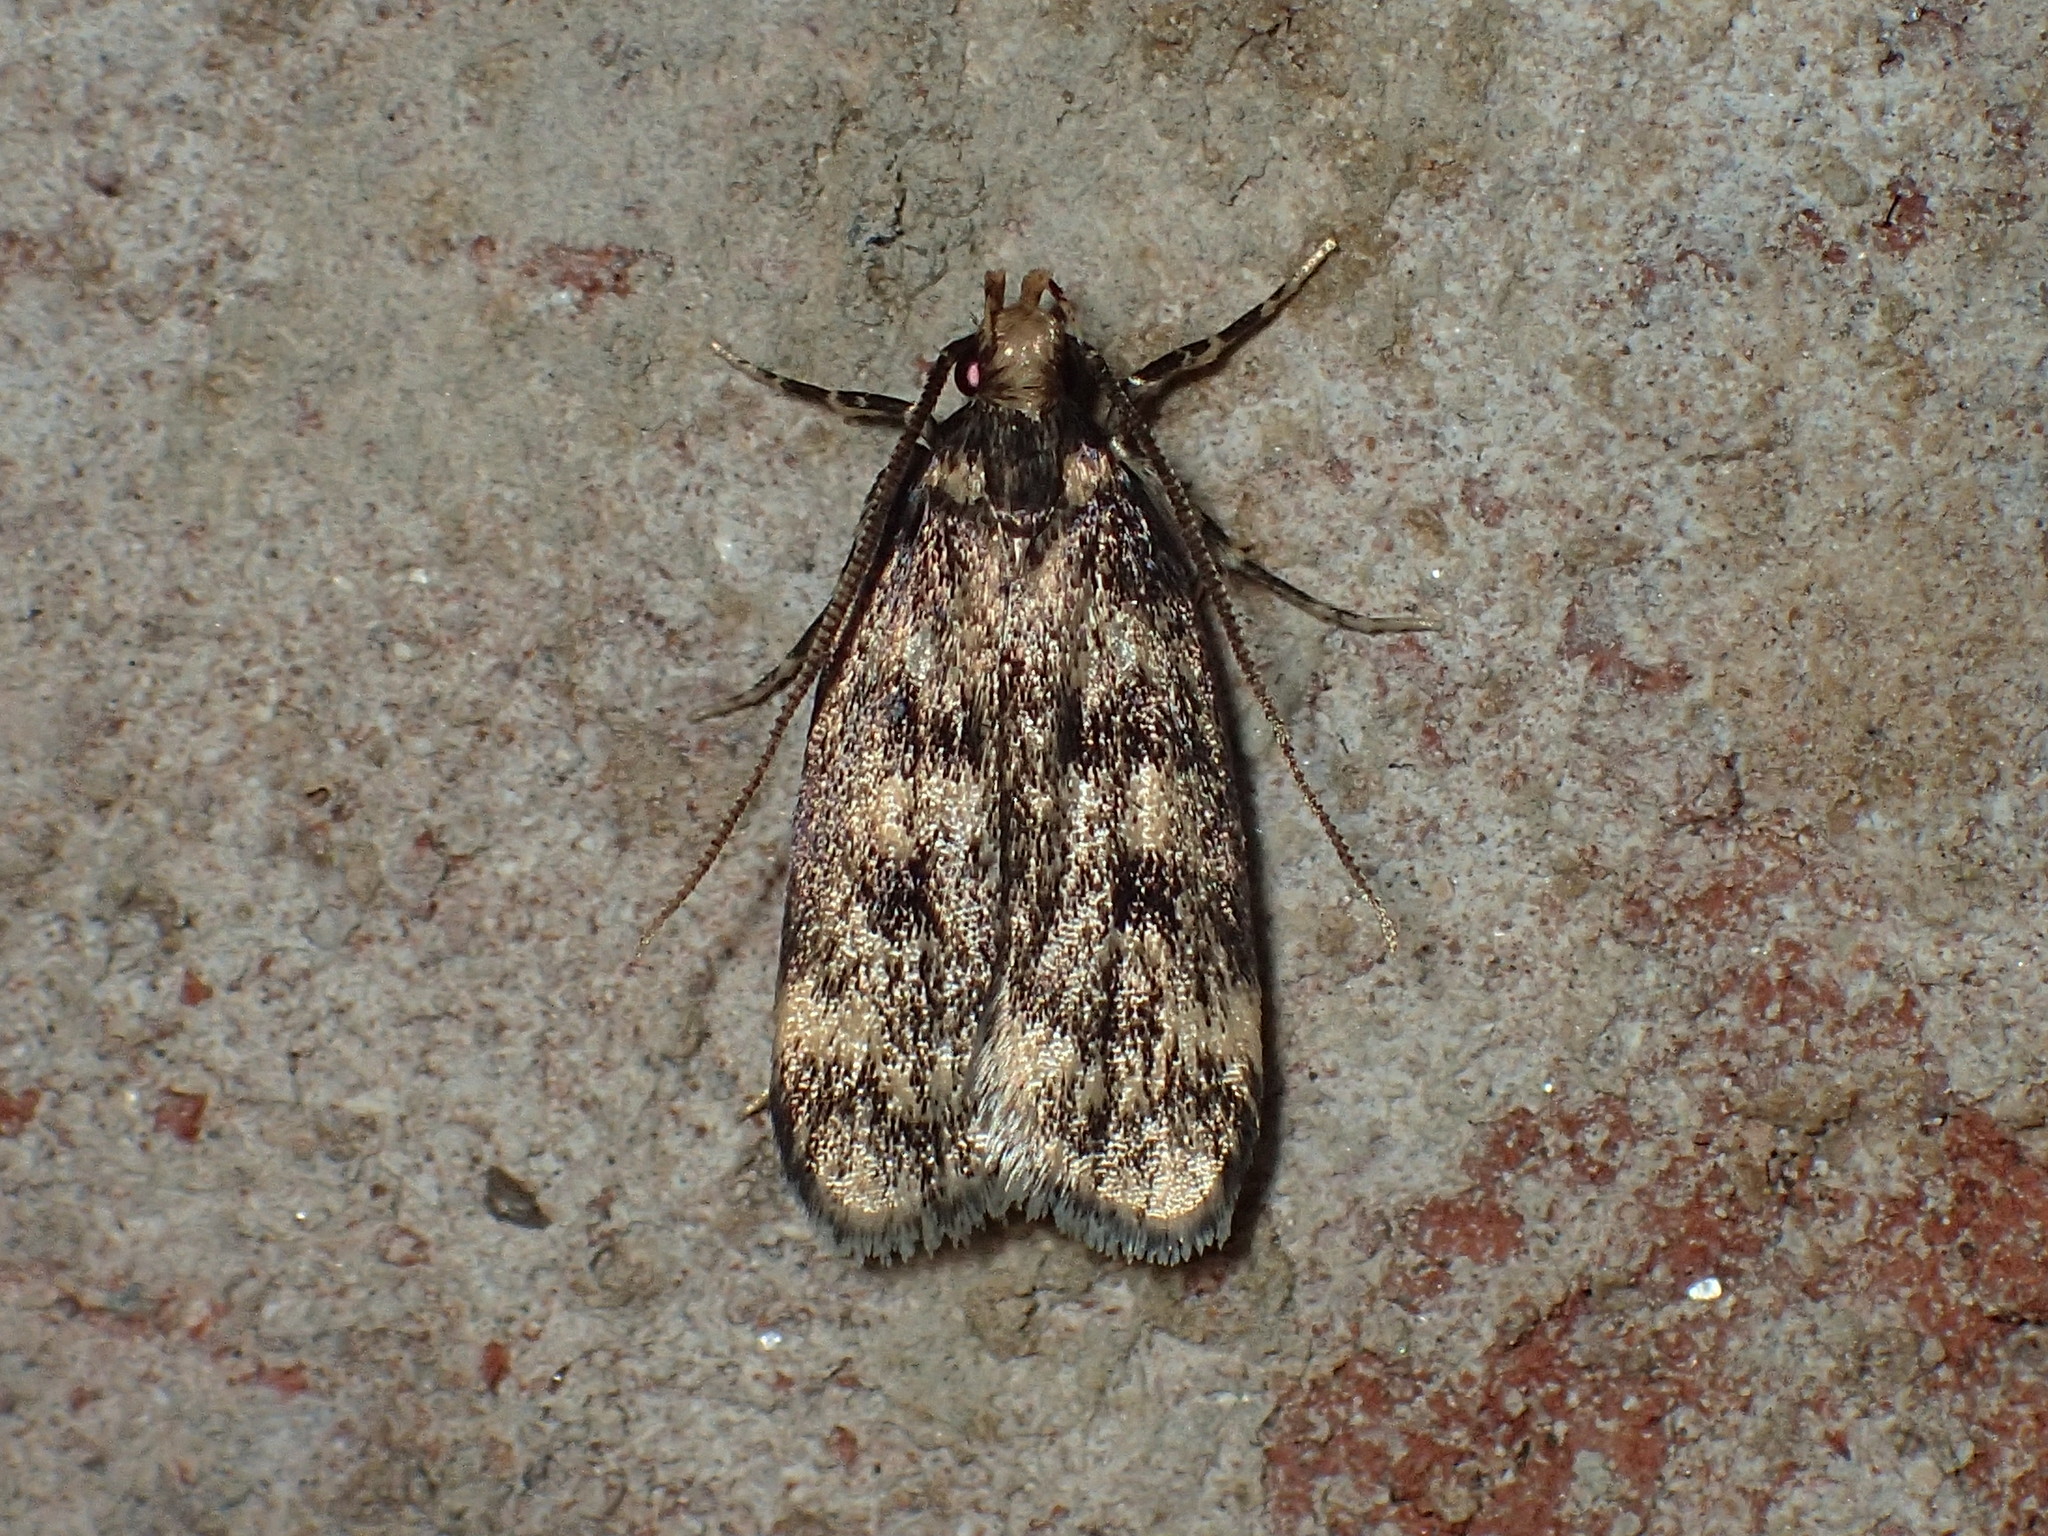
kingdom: Animalia
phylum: Arthropoda
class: Insecta
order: Lepidoptera
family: Lecithoceridae
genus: Martyringa
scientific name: Martyringa latipennis
